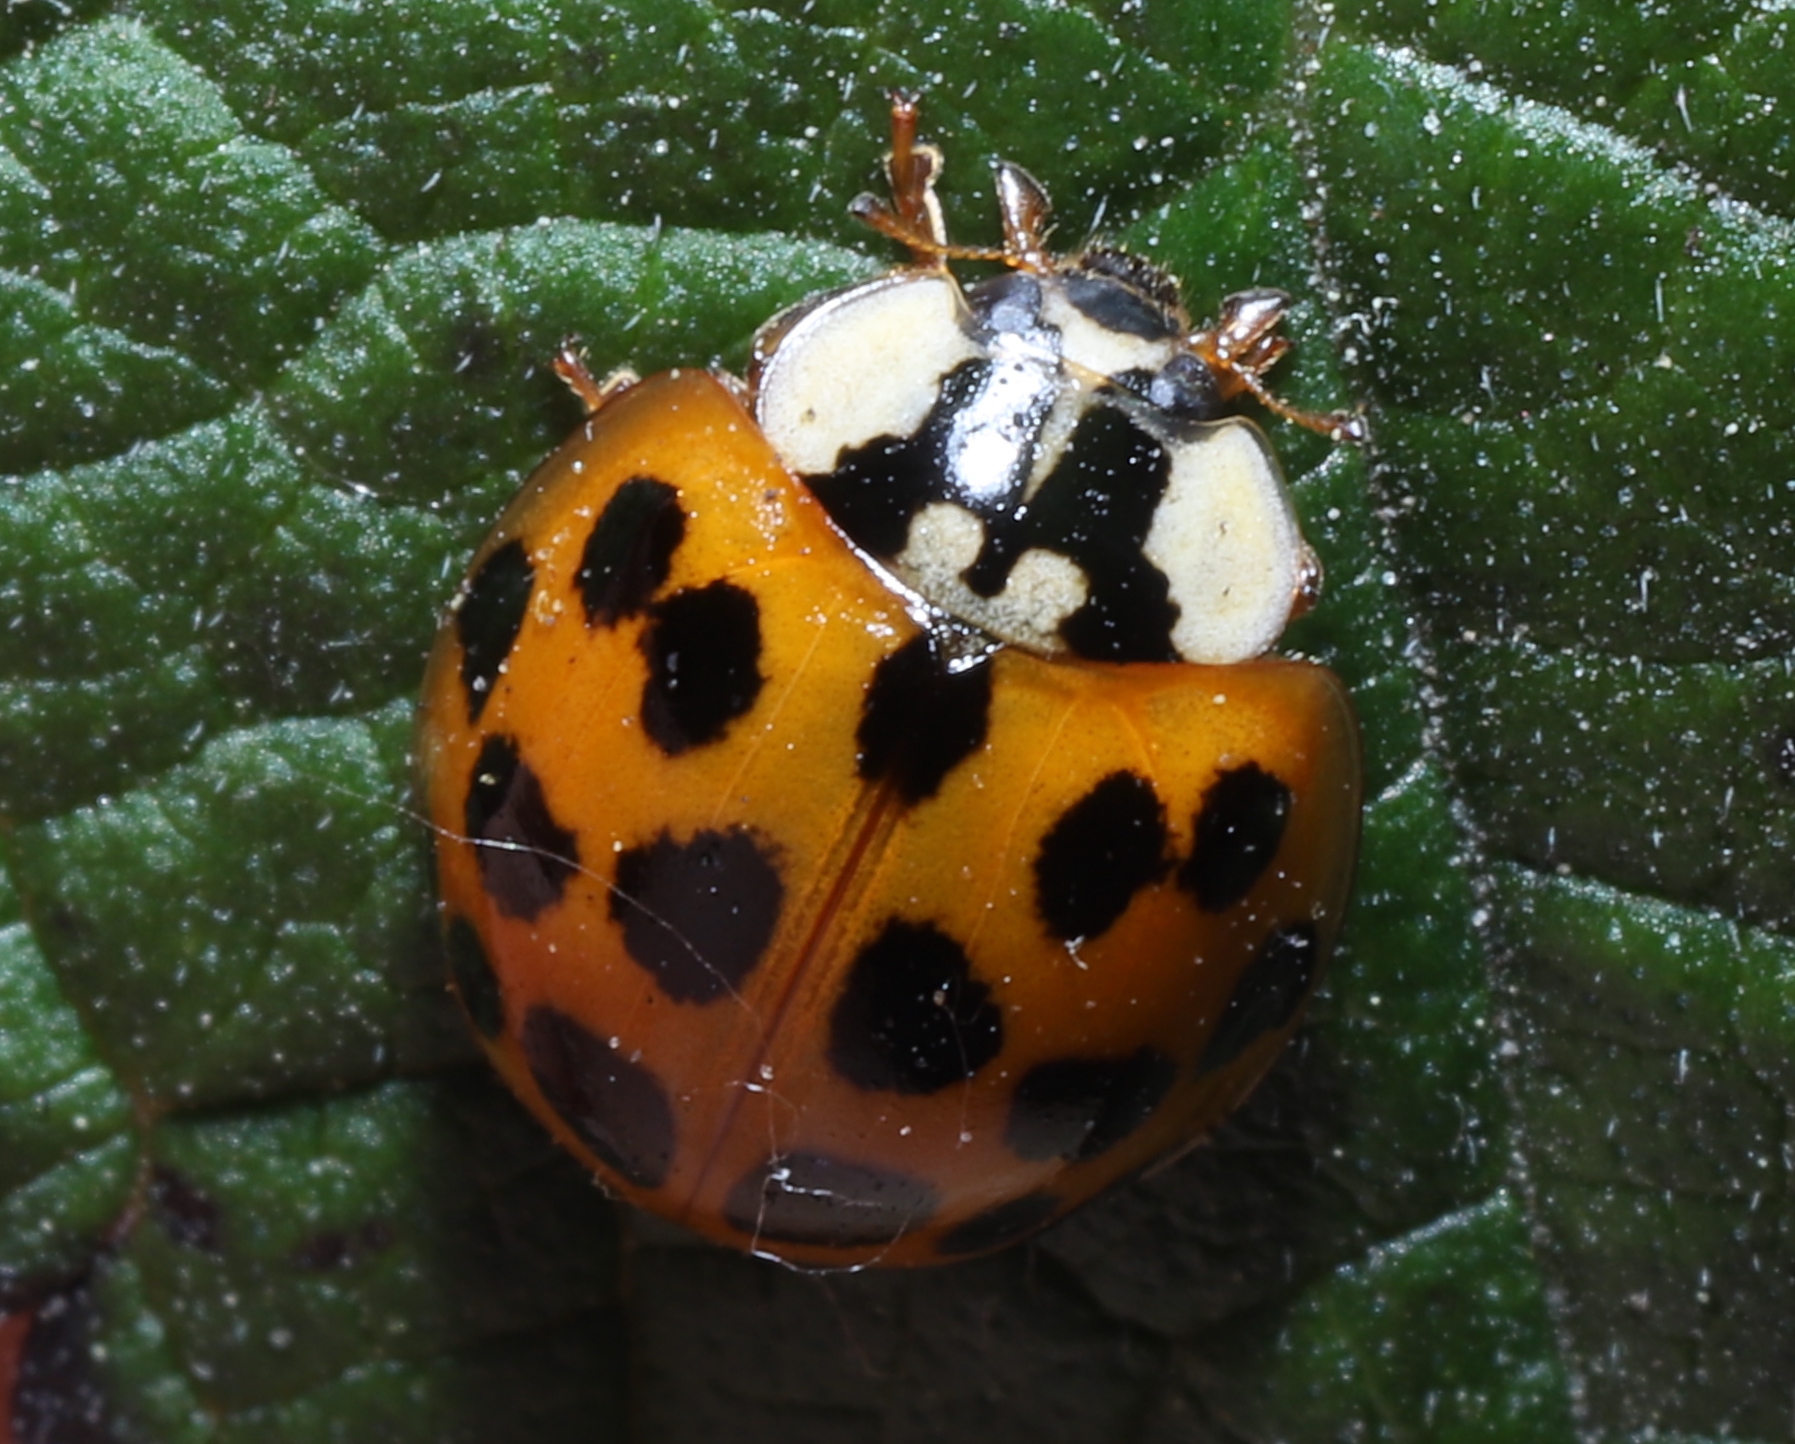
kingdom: Animalia
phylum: Arthropoda
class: Insecta
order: Coleoptera
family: Coccinellidae
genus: Harmonia
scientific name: Harmonia axyridis
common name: Harlequin ladybird
